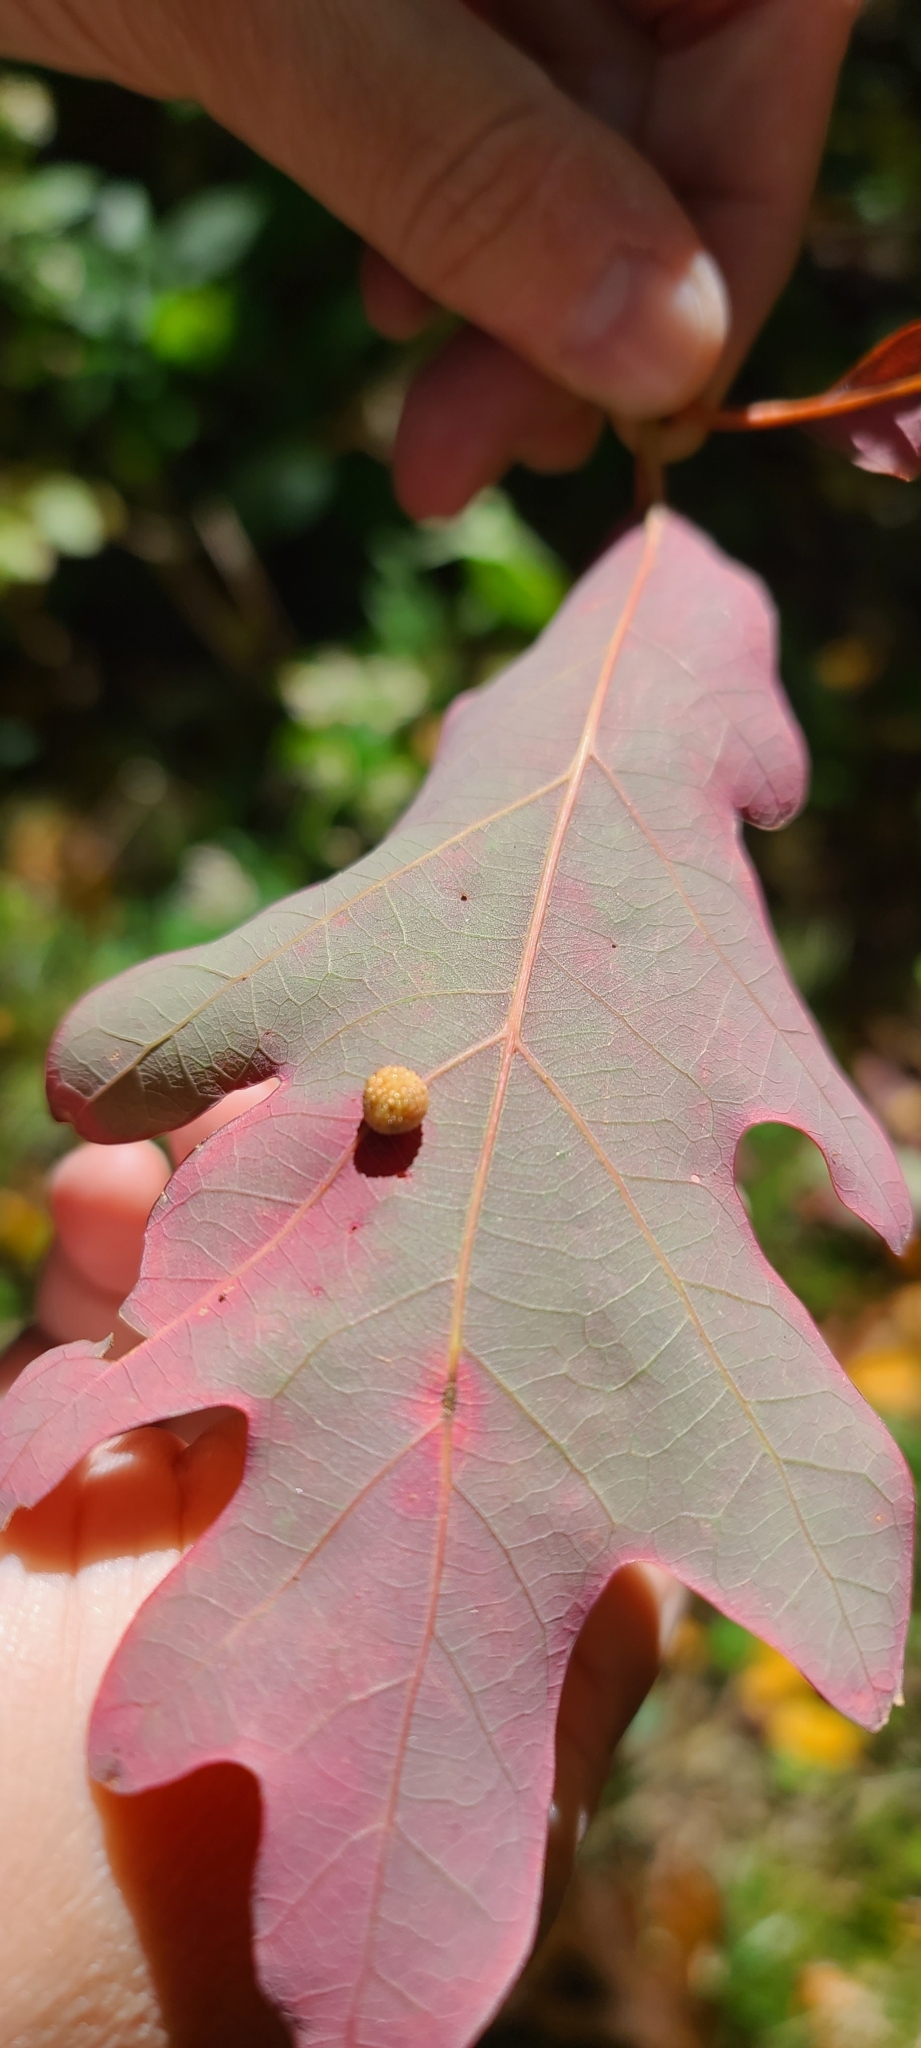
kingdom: Animalia
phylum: Arthropoda
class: Insecta
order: Hymenoptera
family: Cynipidae
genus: Acraspis
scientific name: Acraspis
